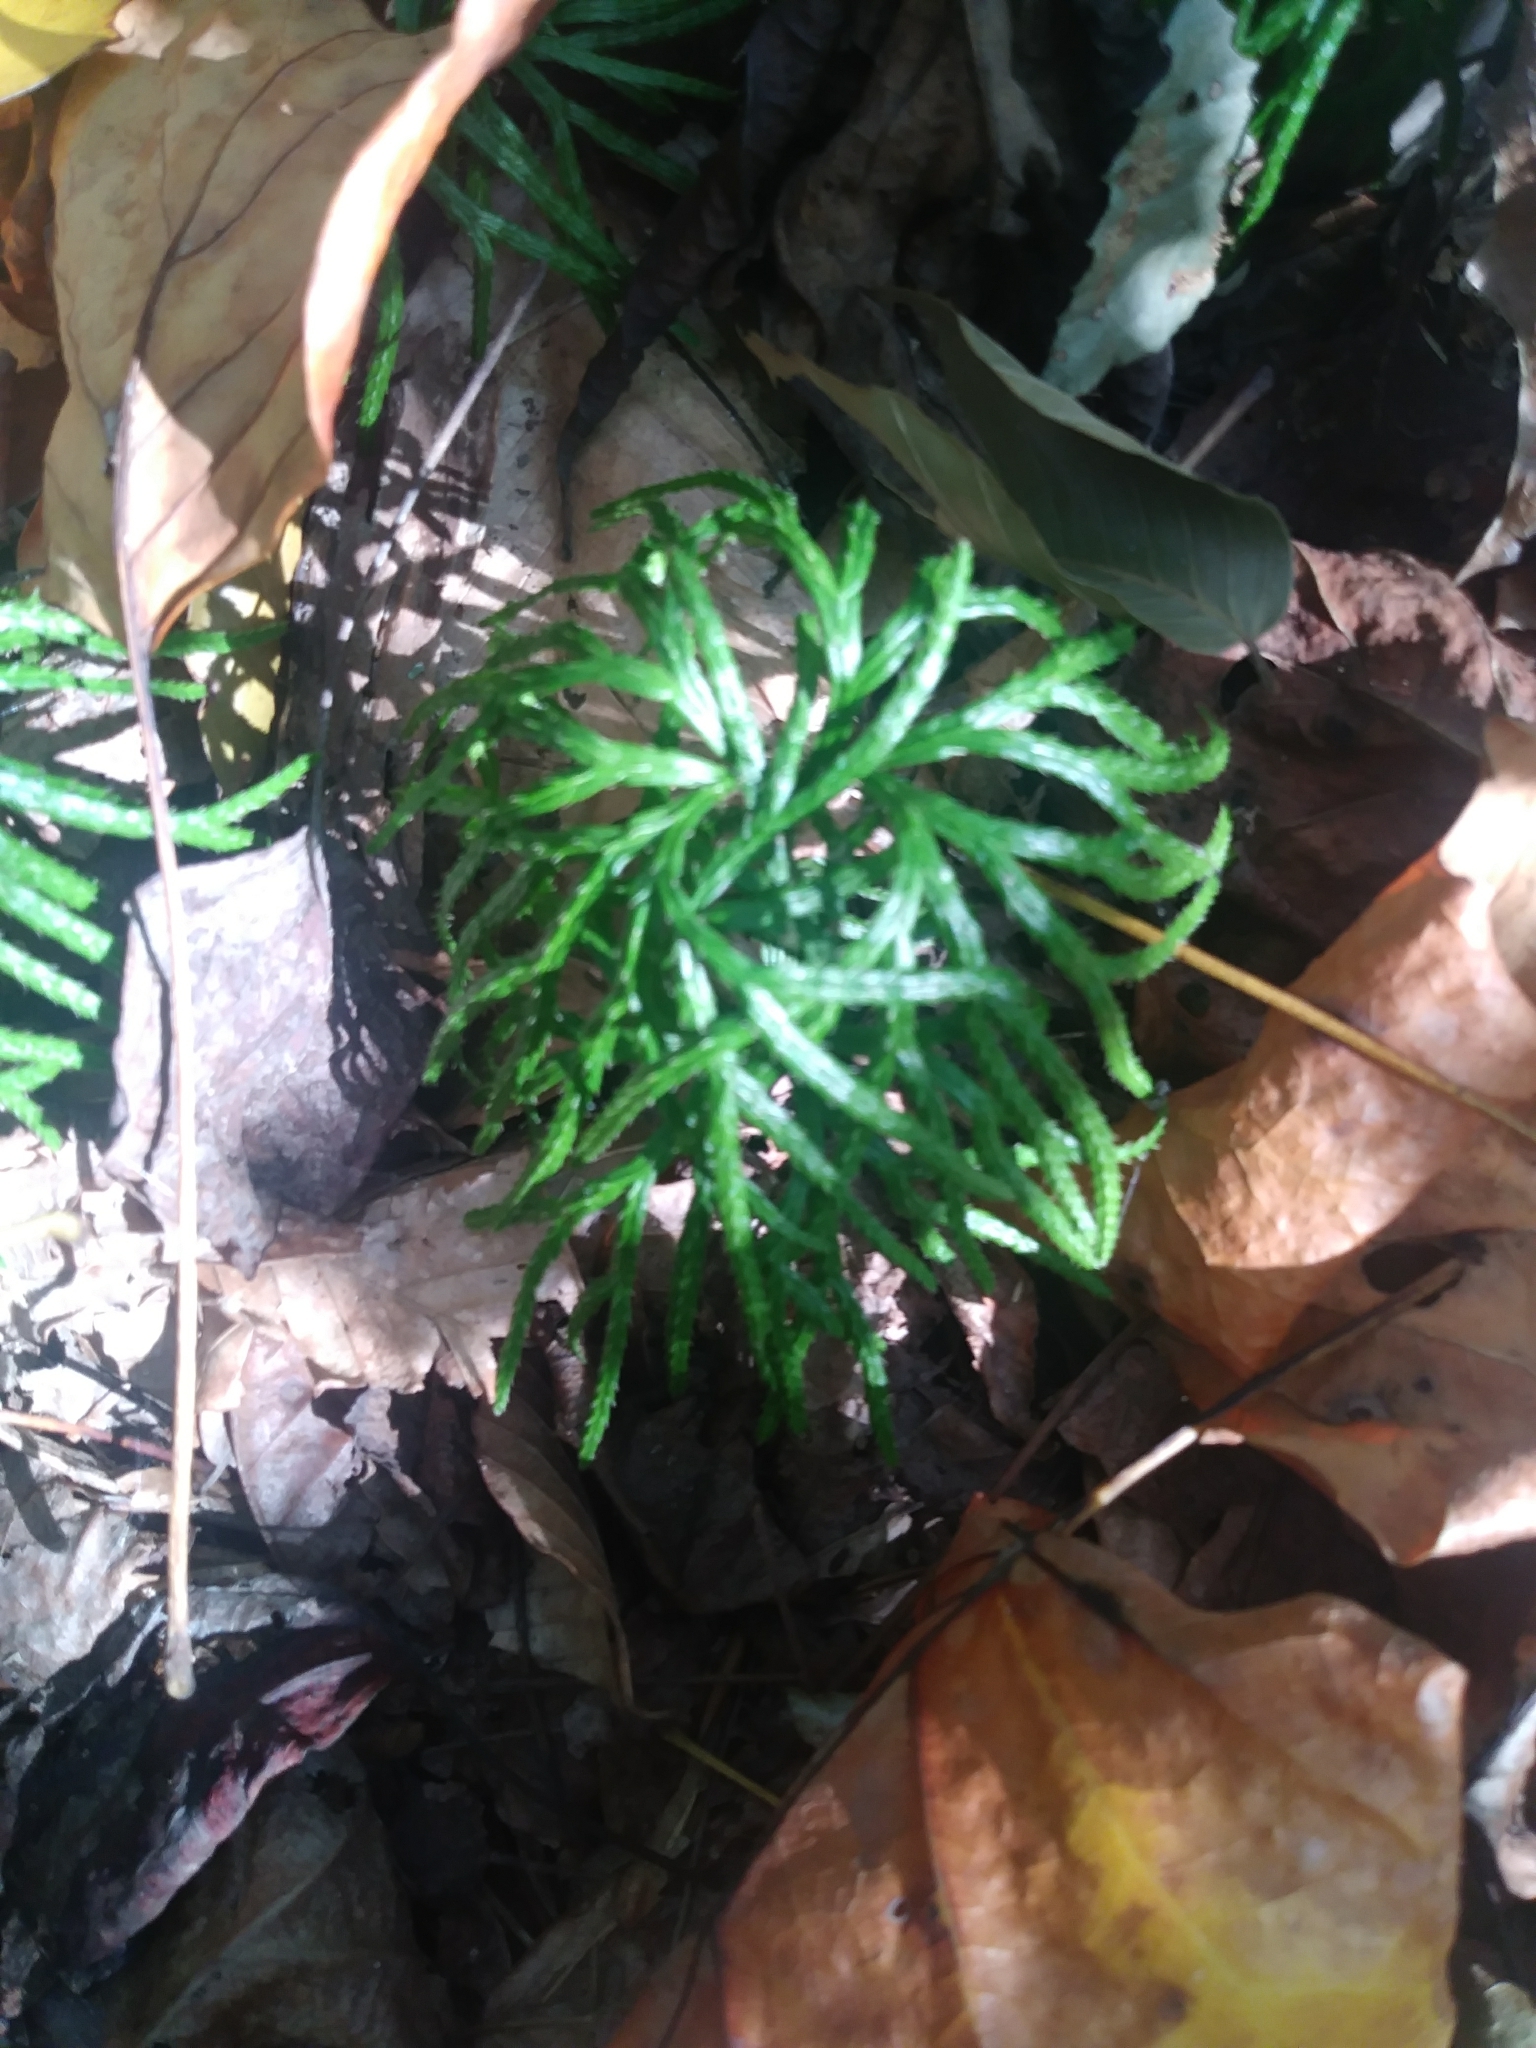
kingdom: Plantae
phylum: Tracheophyta
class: Lycopodiopsida
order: Lycopodiales
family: Lycopodiaceae
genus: Diphasiastrum
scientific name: Diphasiastrum digitatum
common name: Southern running-pine
